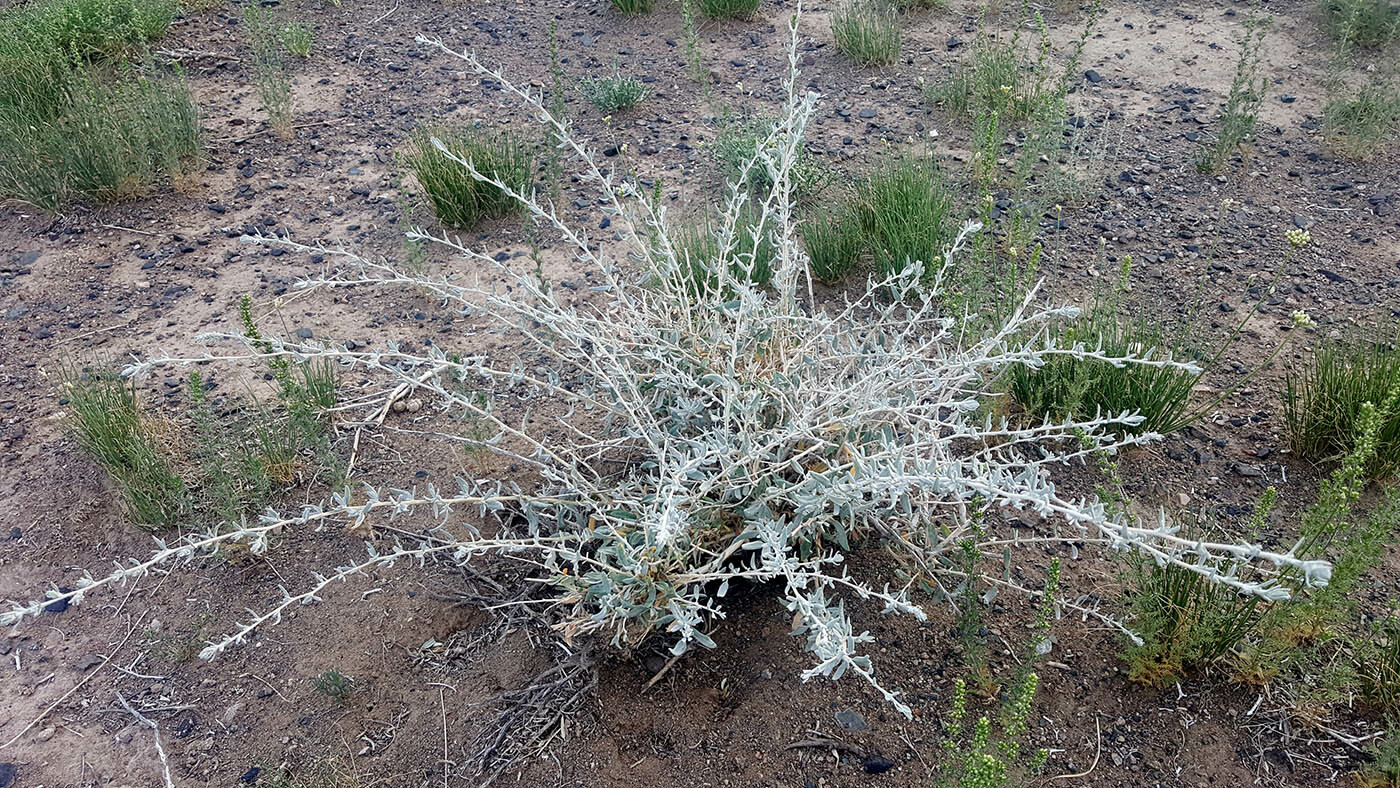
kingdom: Plantae
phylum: Tracheophyta
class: Magnoliopsida
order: Caryophyllales
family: Amaranthaceae
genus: Krascheninnikovia
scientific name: Krascheninnikovia ceratoides
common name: Pamirian winterfat
